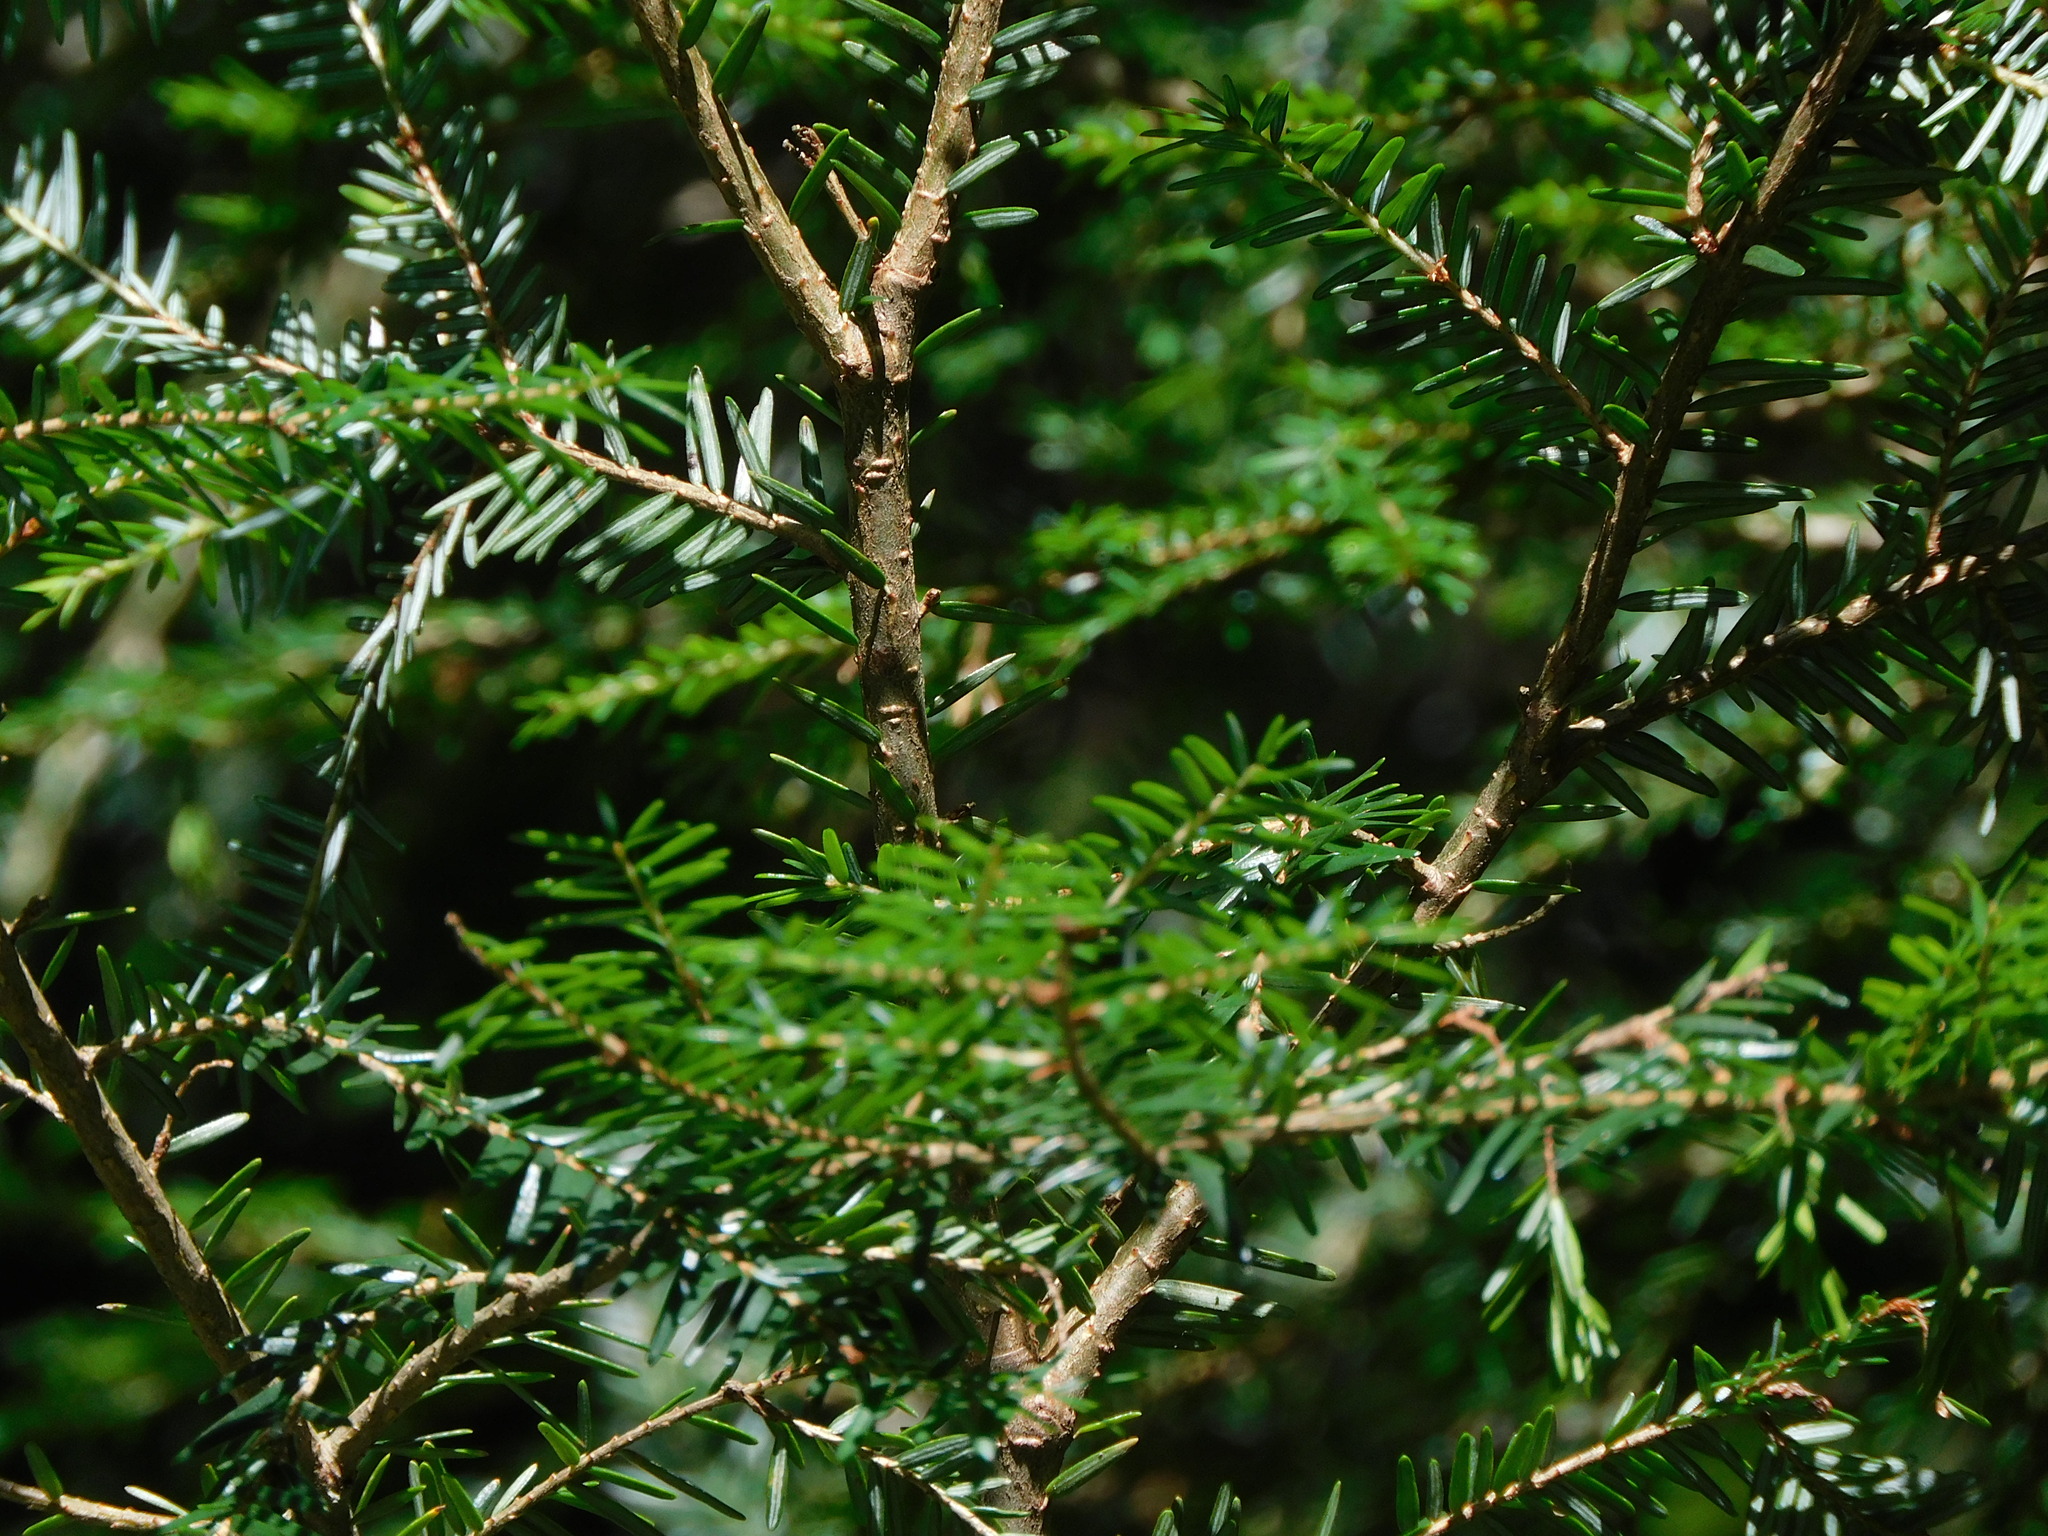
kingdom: Plantae
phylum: Tracheophyta
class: Pinopsida
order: Pinales
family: Pinaceae
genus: Tsuga
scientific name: Tsuga canadensis
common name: Eastern hemlock
